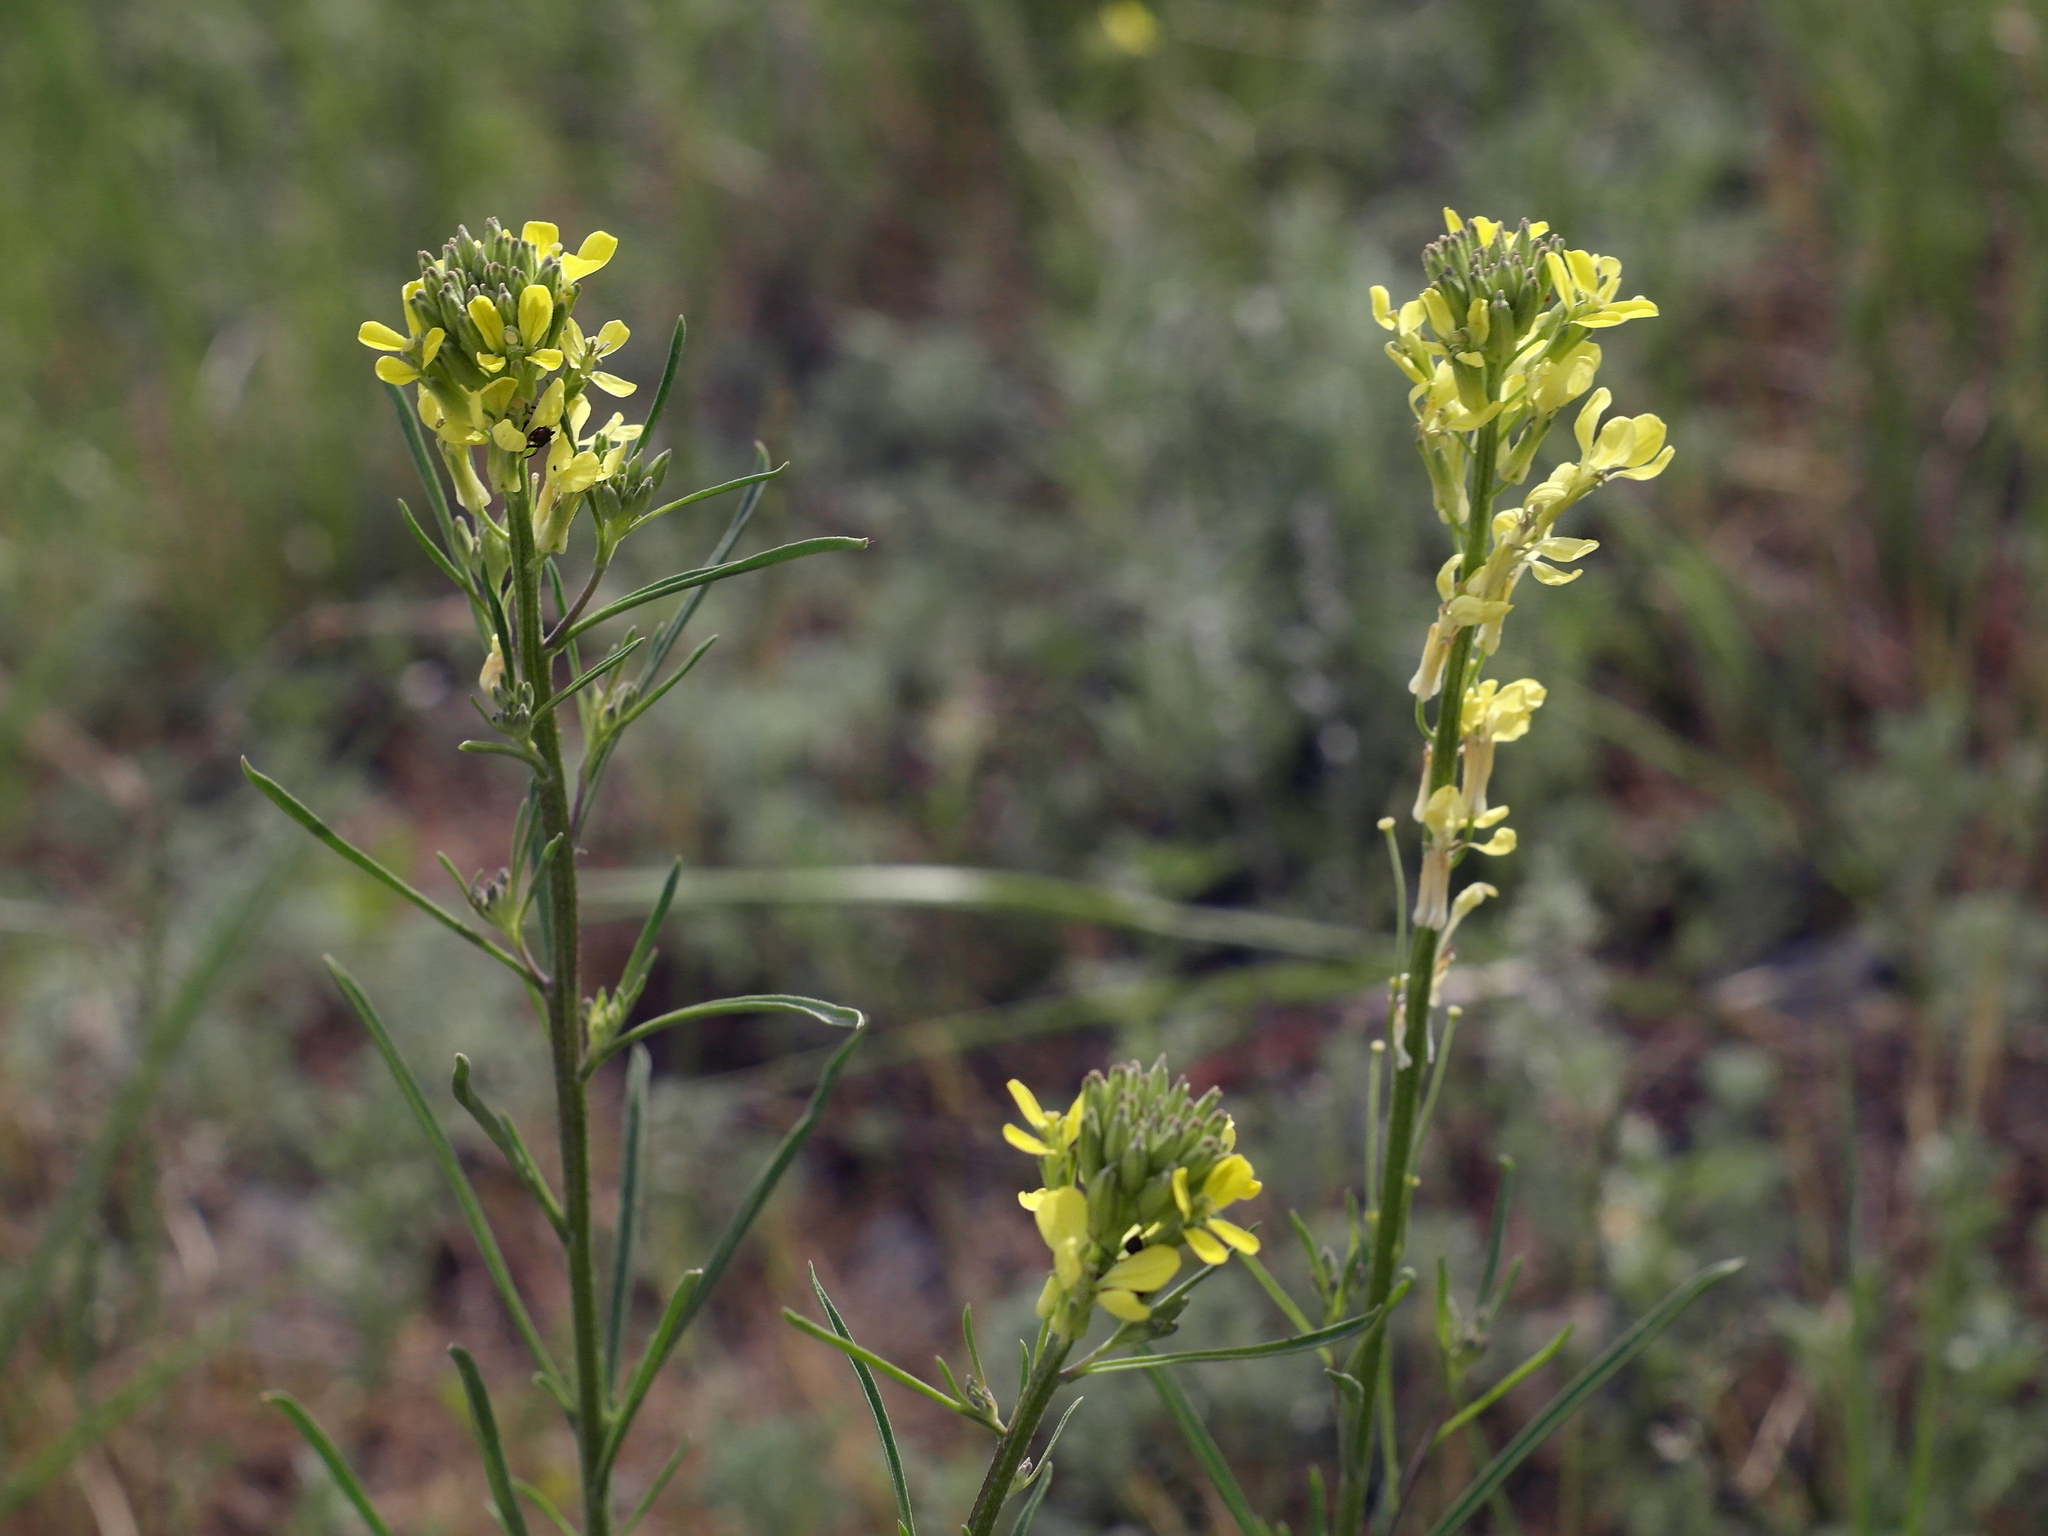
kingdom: Plantae
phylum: Tracheophyta
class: Magnoliopsida
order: Brassicales
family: Brassicaceae
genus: Erysimum
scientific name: Erysimum diffusum
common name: Diffuse wallflower
